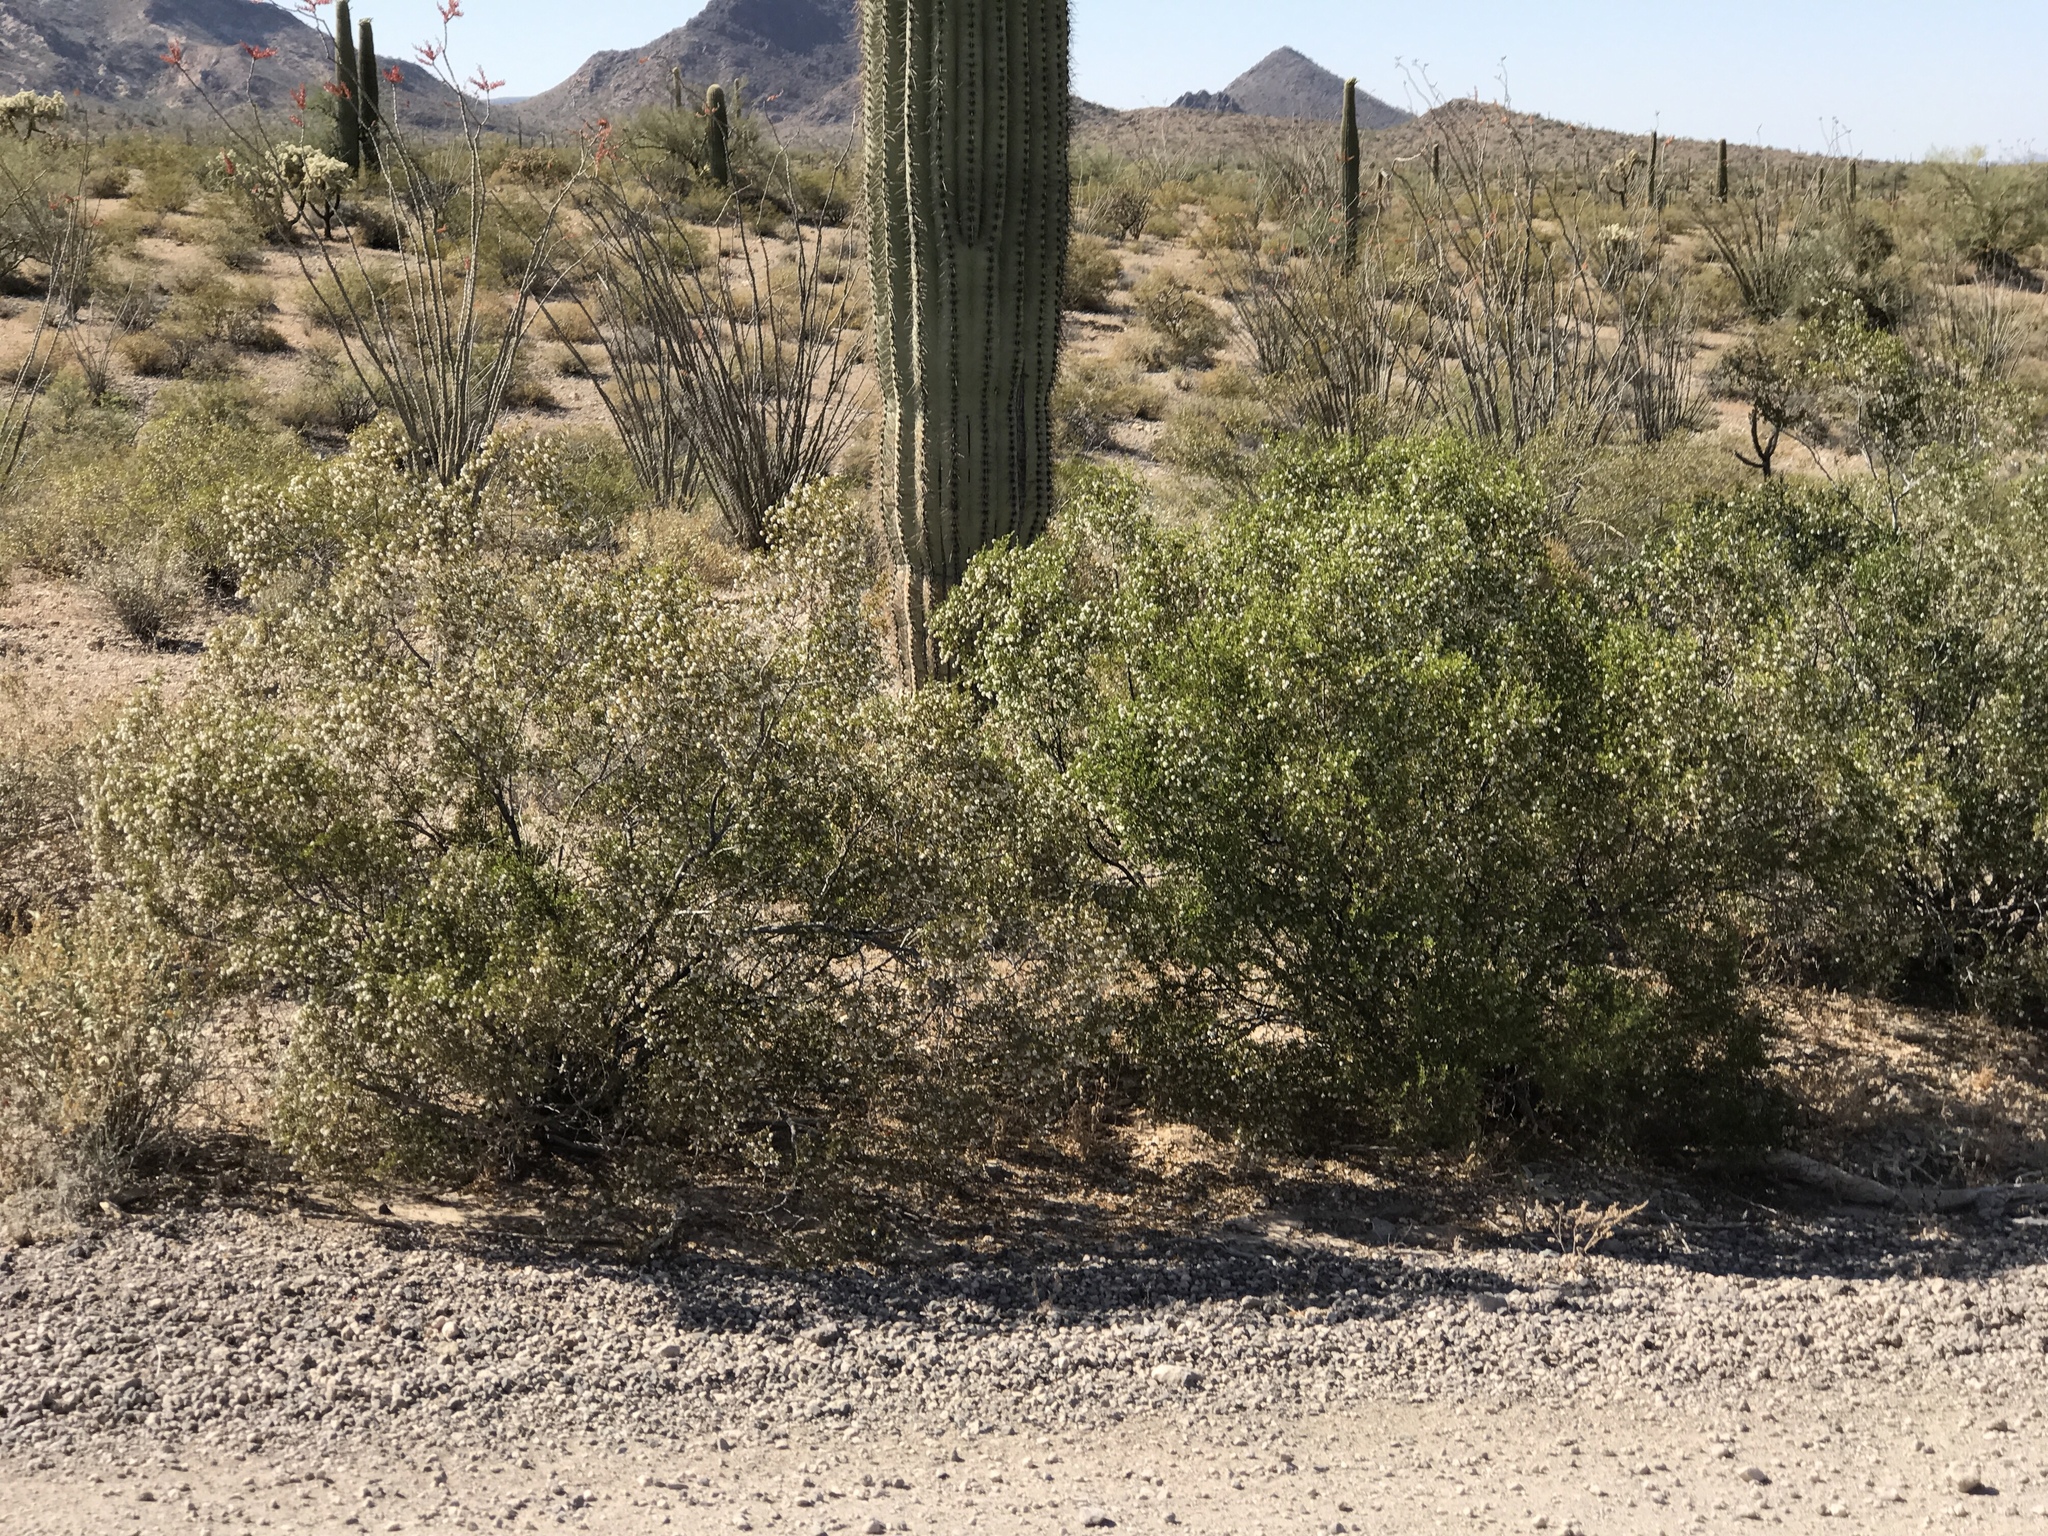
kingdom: Plantae
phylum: Tracheophyta
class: Magnoliopsida
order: Zygophyllales
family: Zygophyllaceae
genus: Larrea
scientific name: Larrea tridentata
